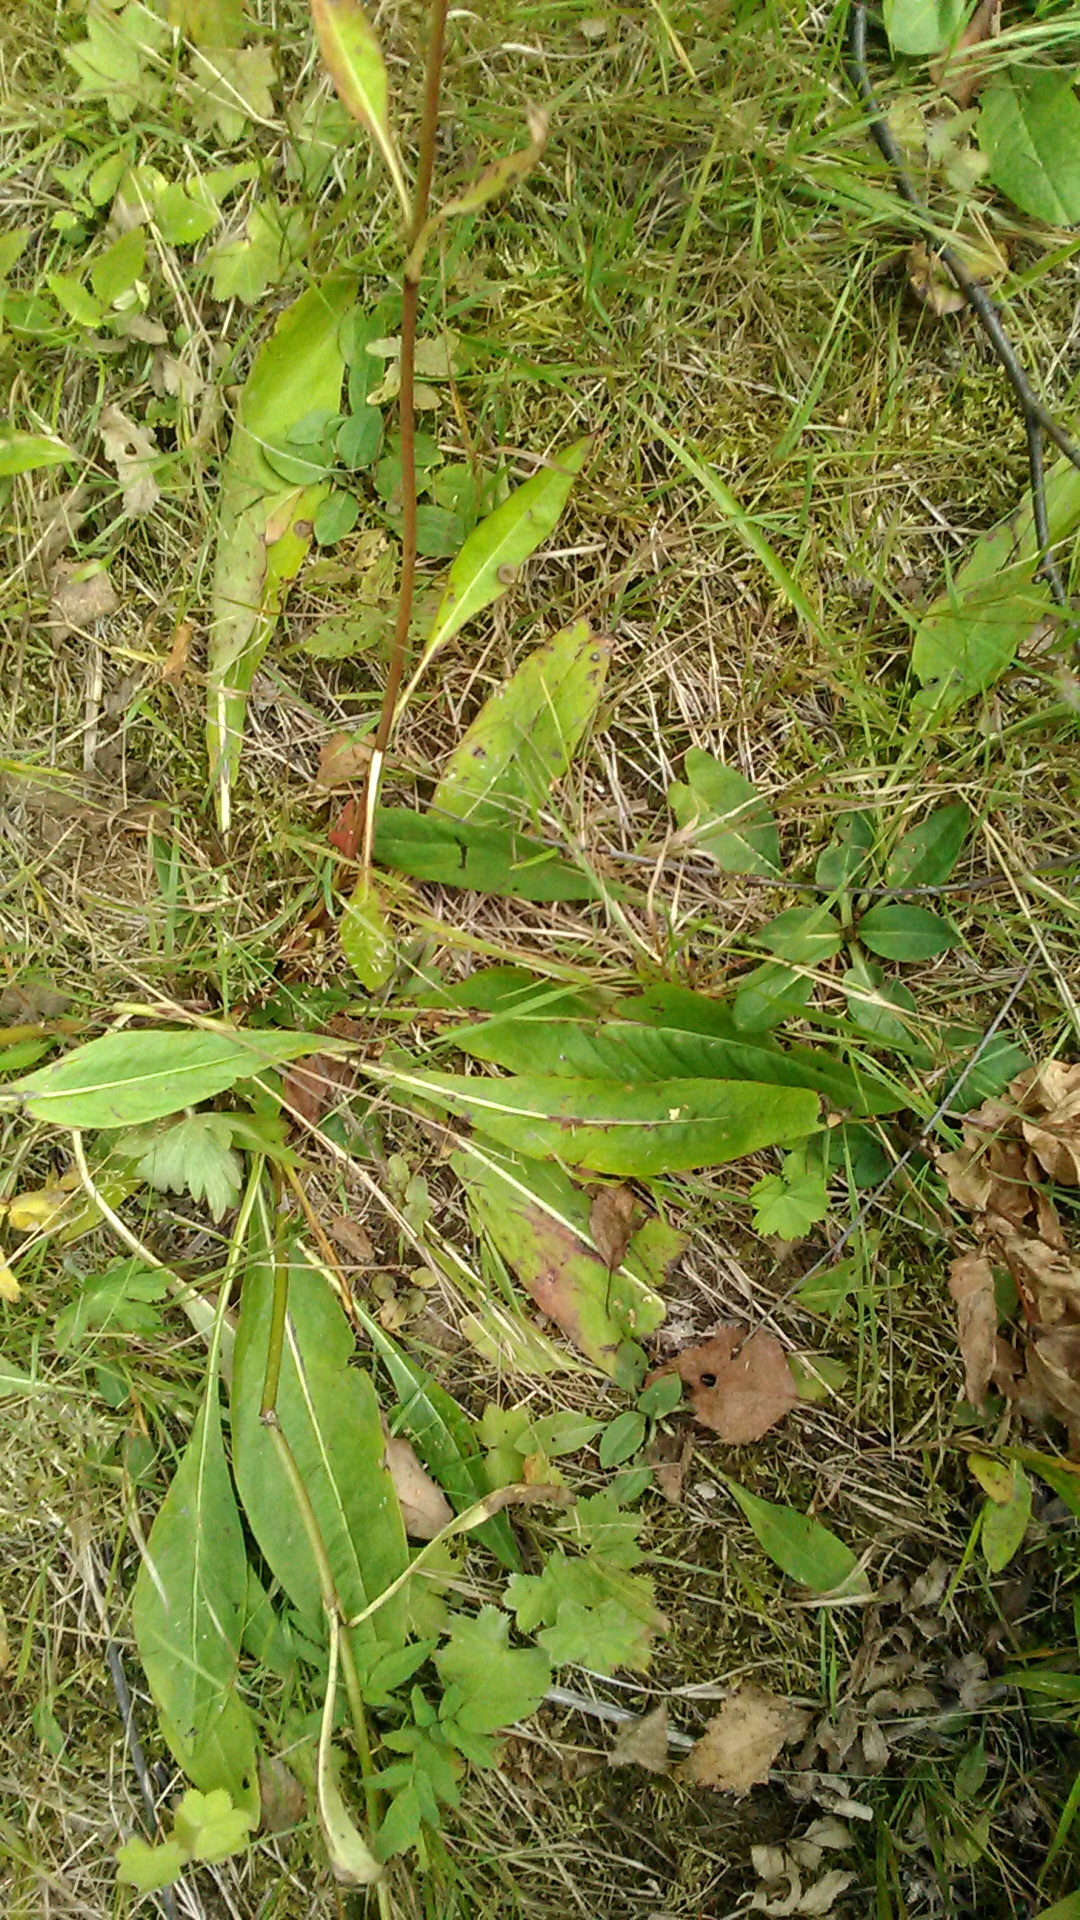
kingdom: Plantae
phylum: Tracheophyta
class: Magnoliopsida
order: Dipsacales
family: Caprifoliaceae
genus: Succisa
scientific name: Succisa pratensis
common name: Devil's-bit
